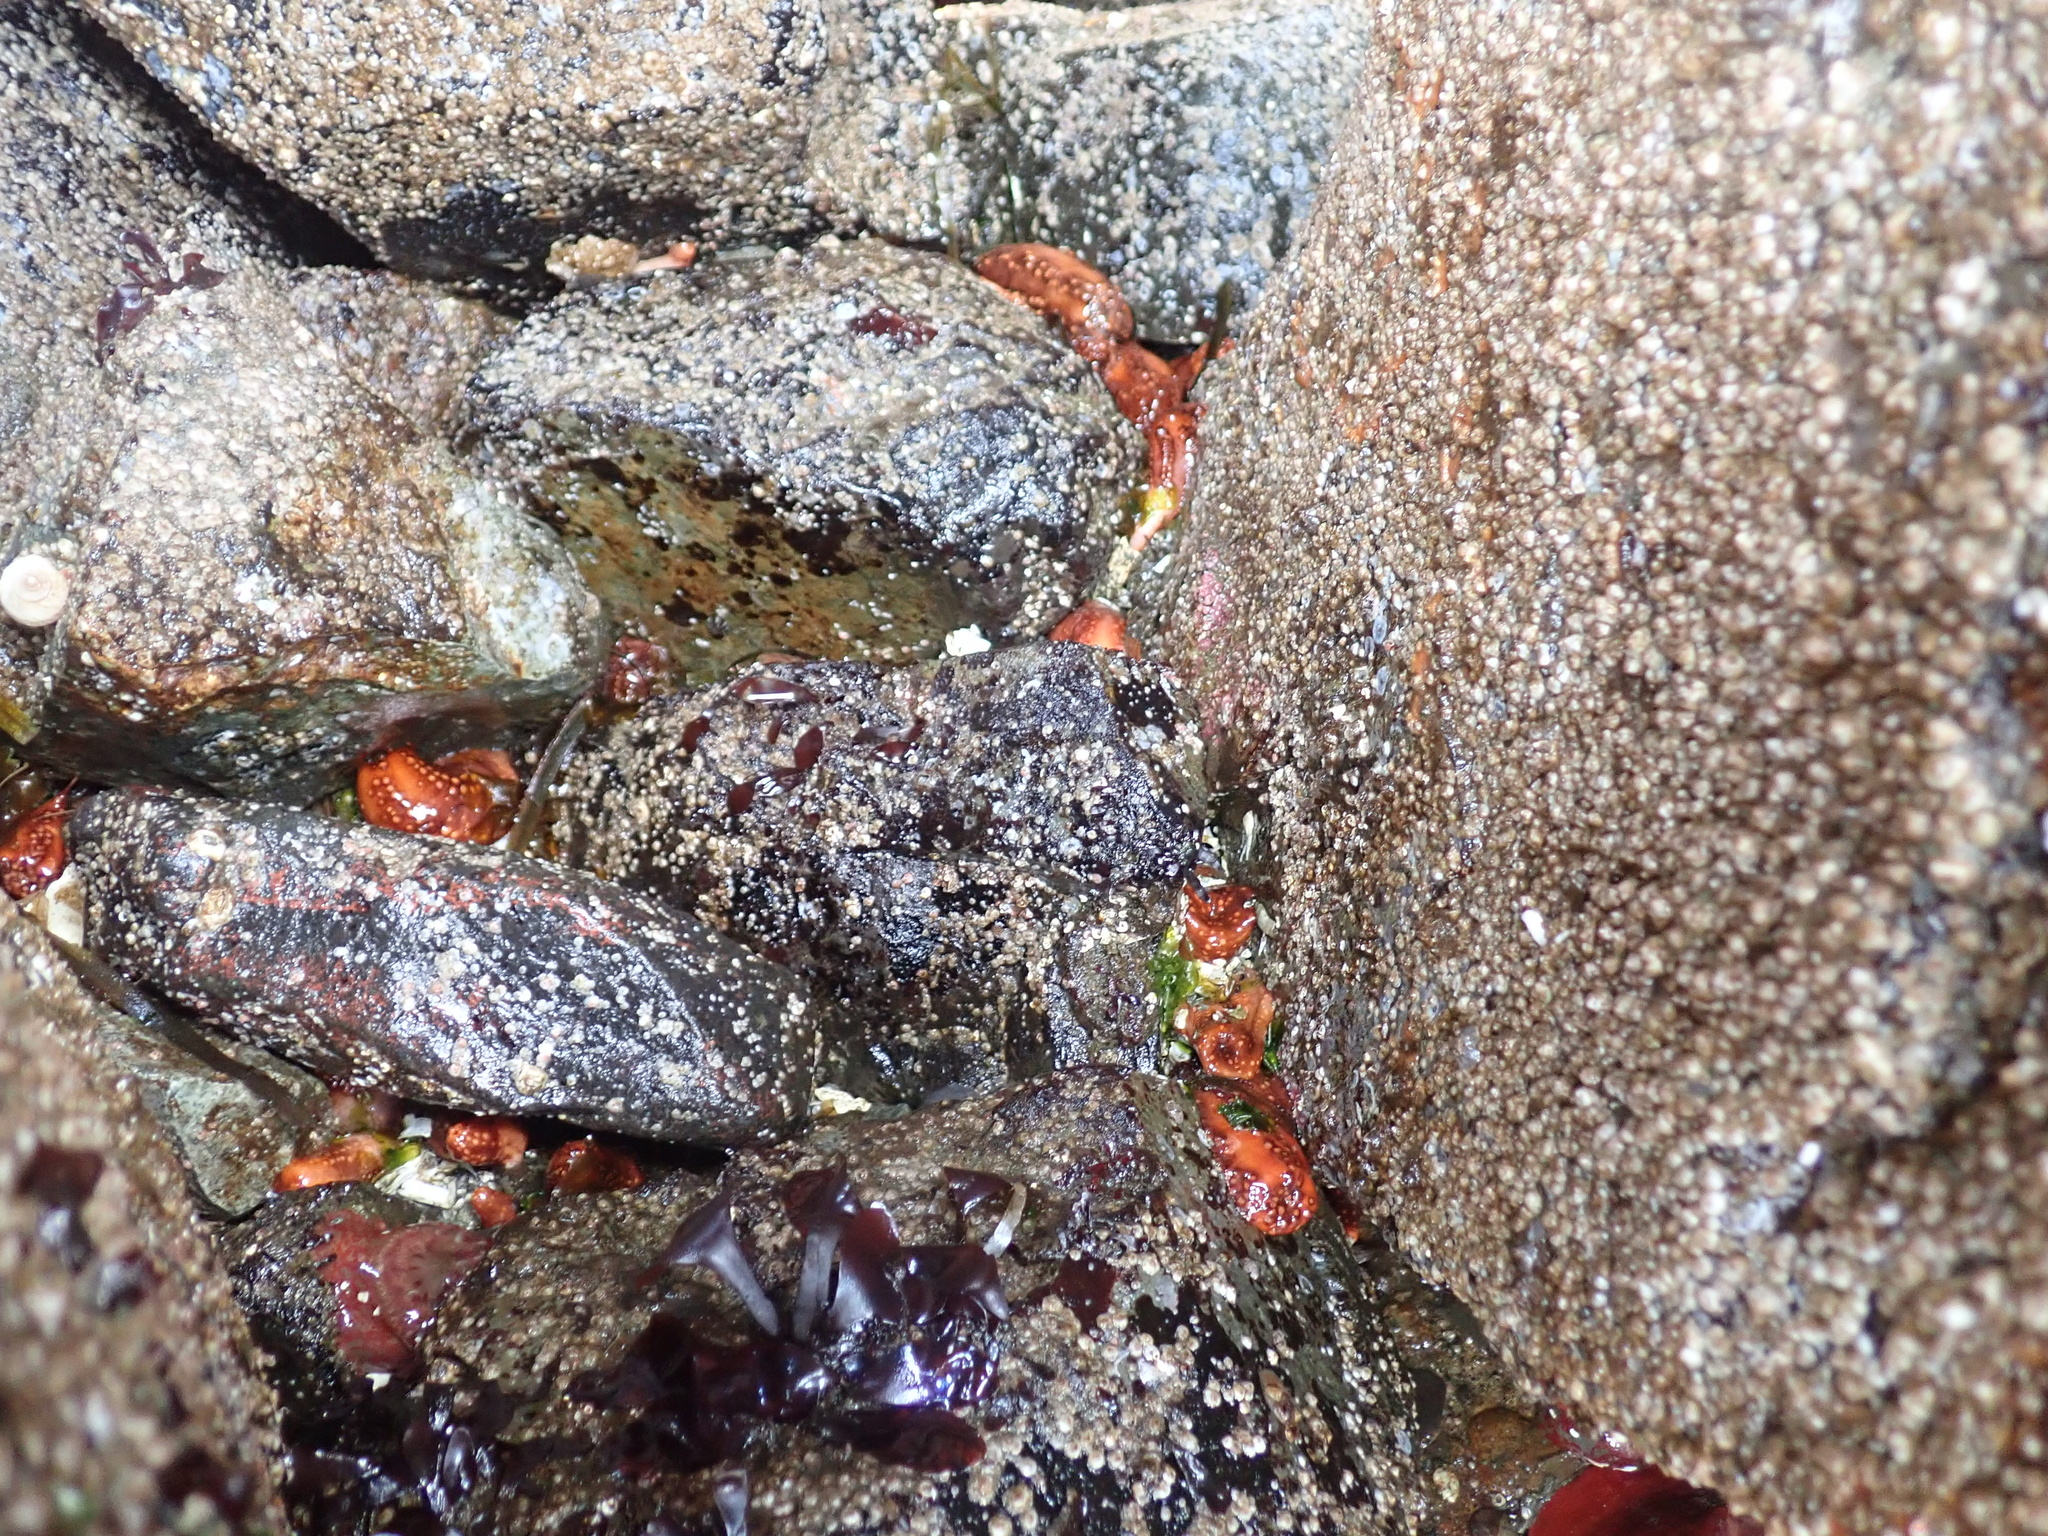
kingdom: Animalia
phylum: Echinodermata
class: Holothuroidea
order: Dendrochirotida
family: Cucumariidae
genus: Cucumaria
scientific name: Cucumaria miniata
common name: Orange sea cucumber
